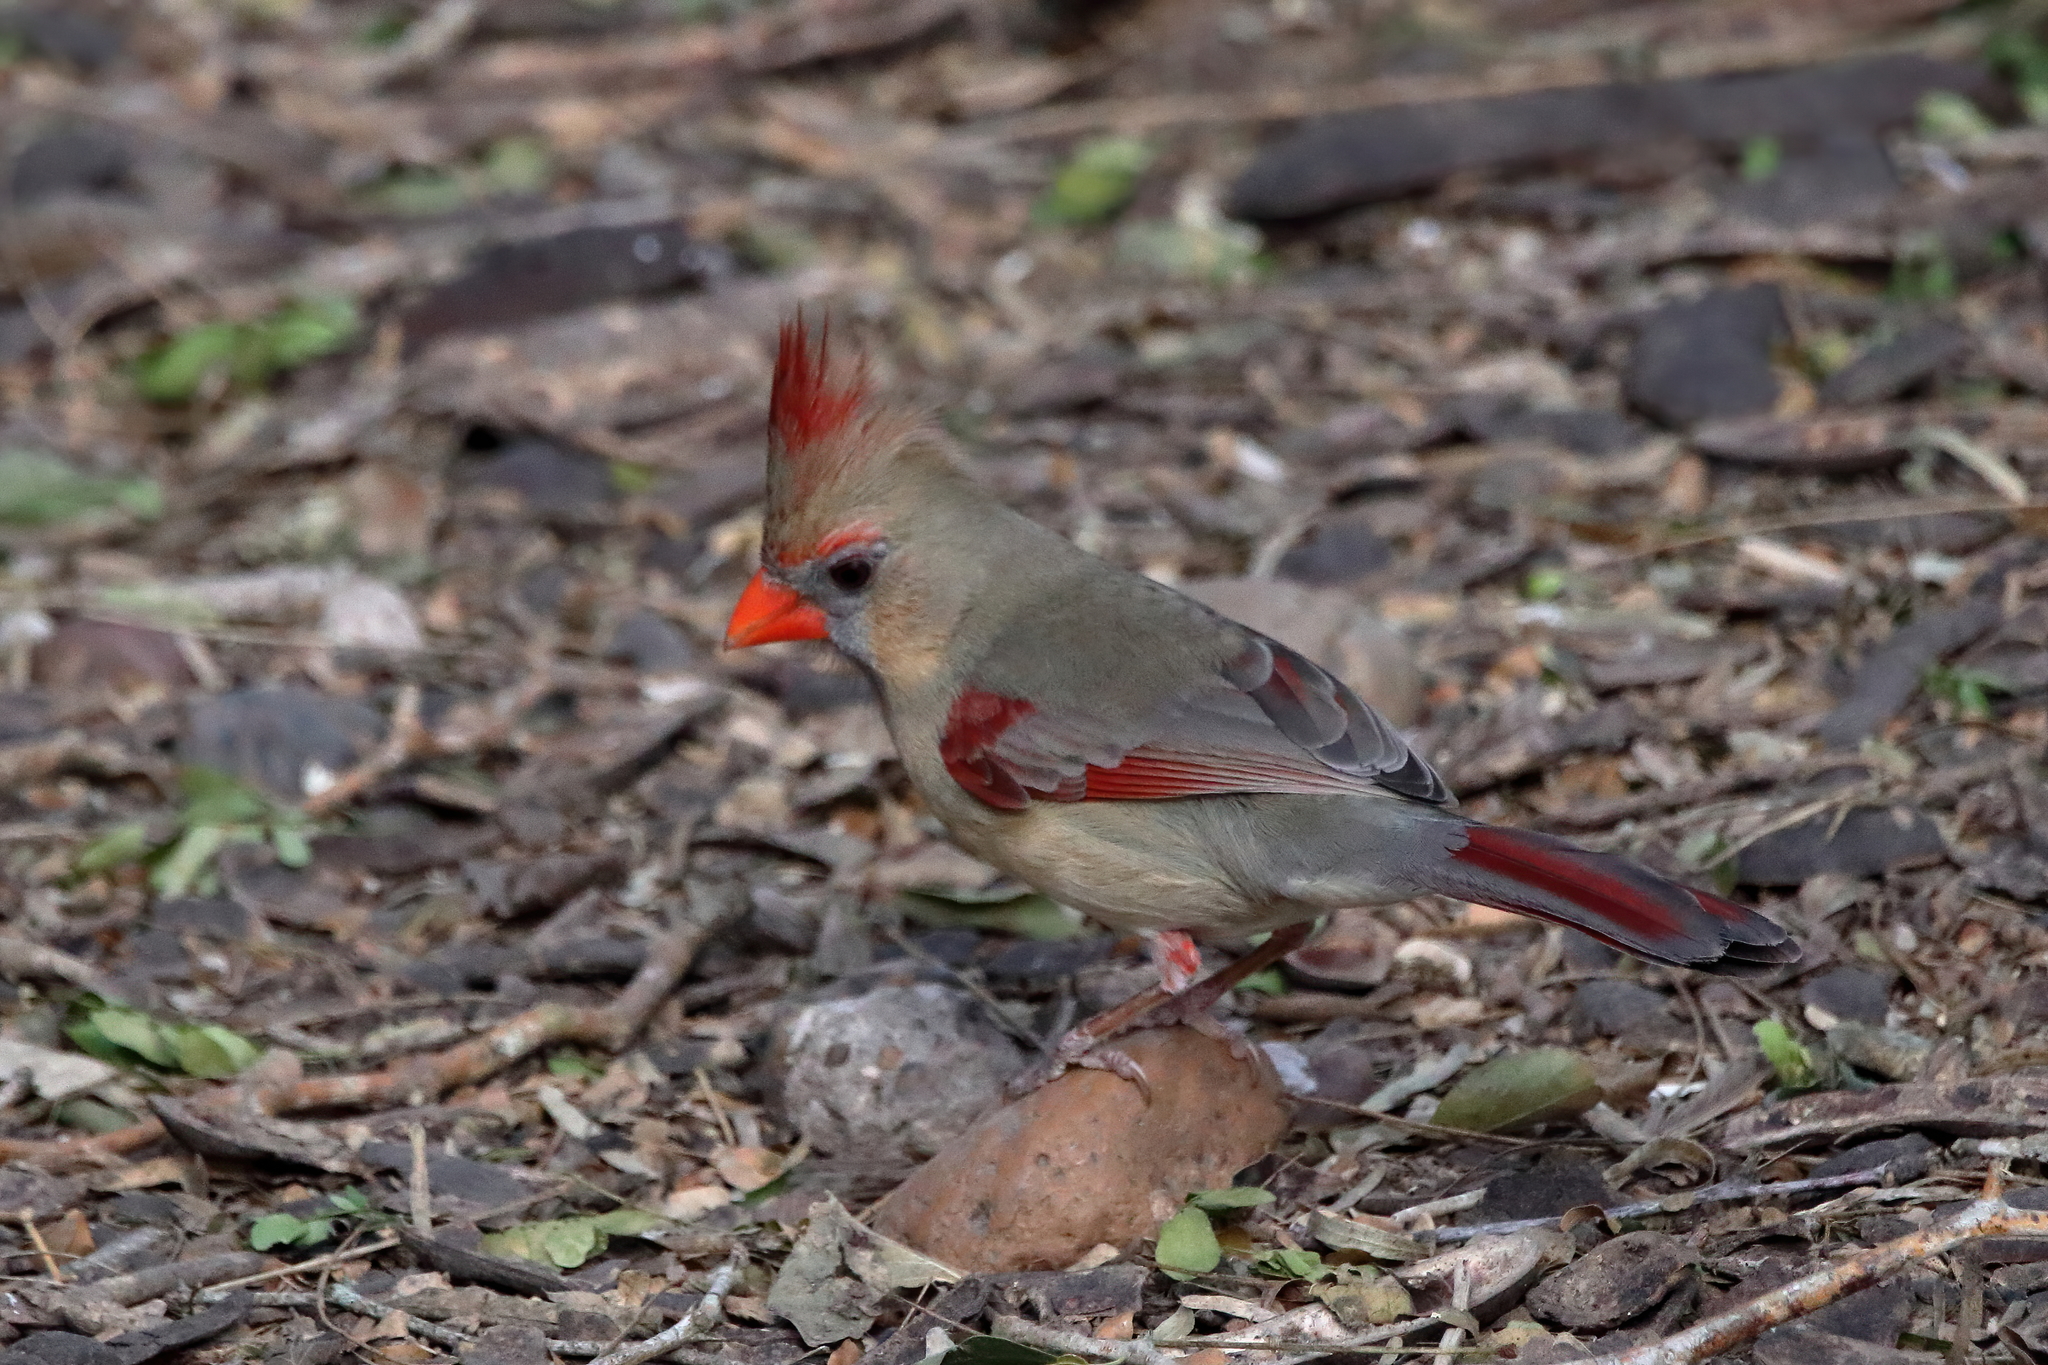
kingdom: Animalia
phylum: Chordata
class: Aves
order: Passeriformes
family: Cardinalidae
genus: Cardinalis
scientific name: Cardinalis cardinalis
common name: Northern cardinal
